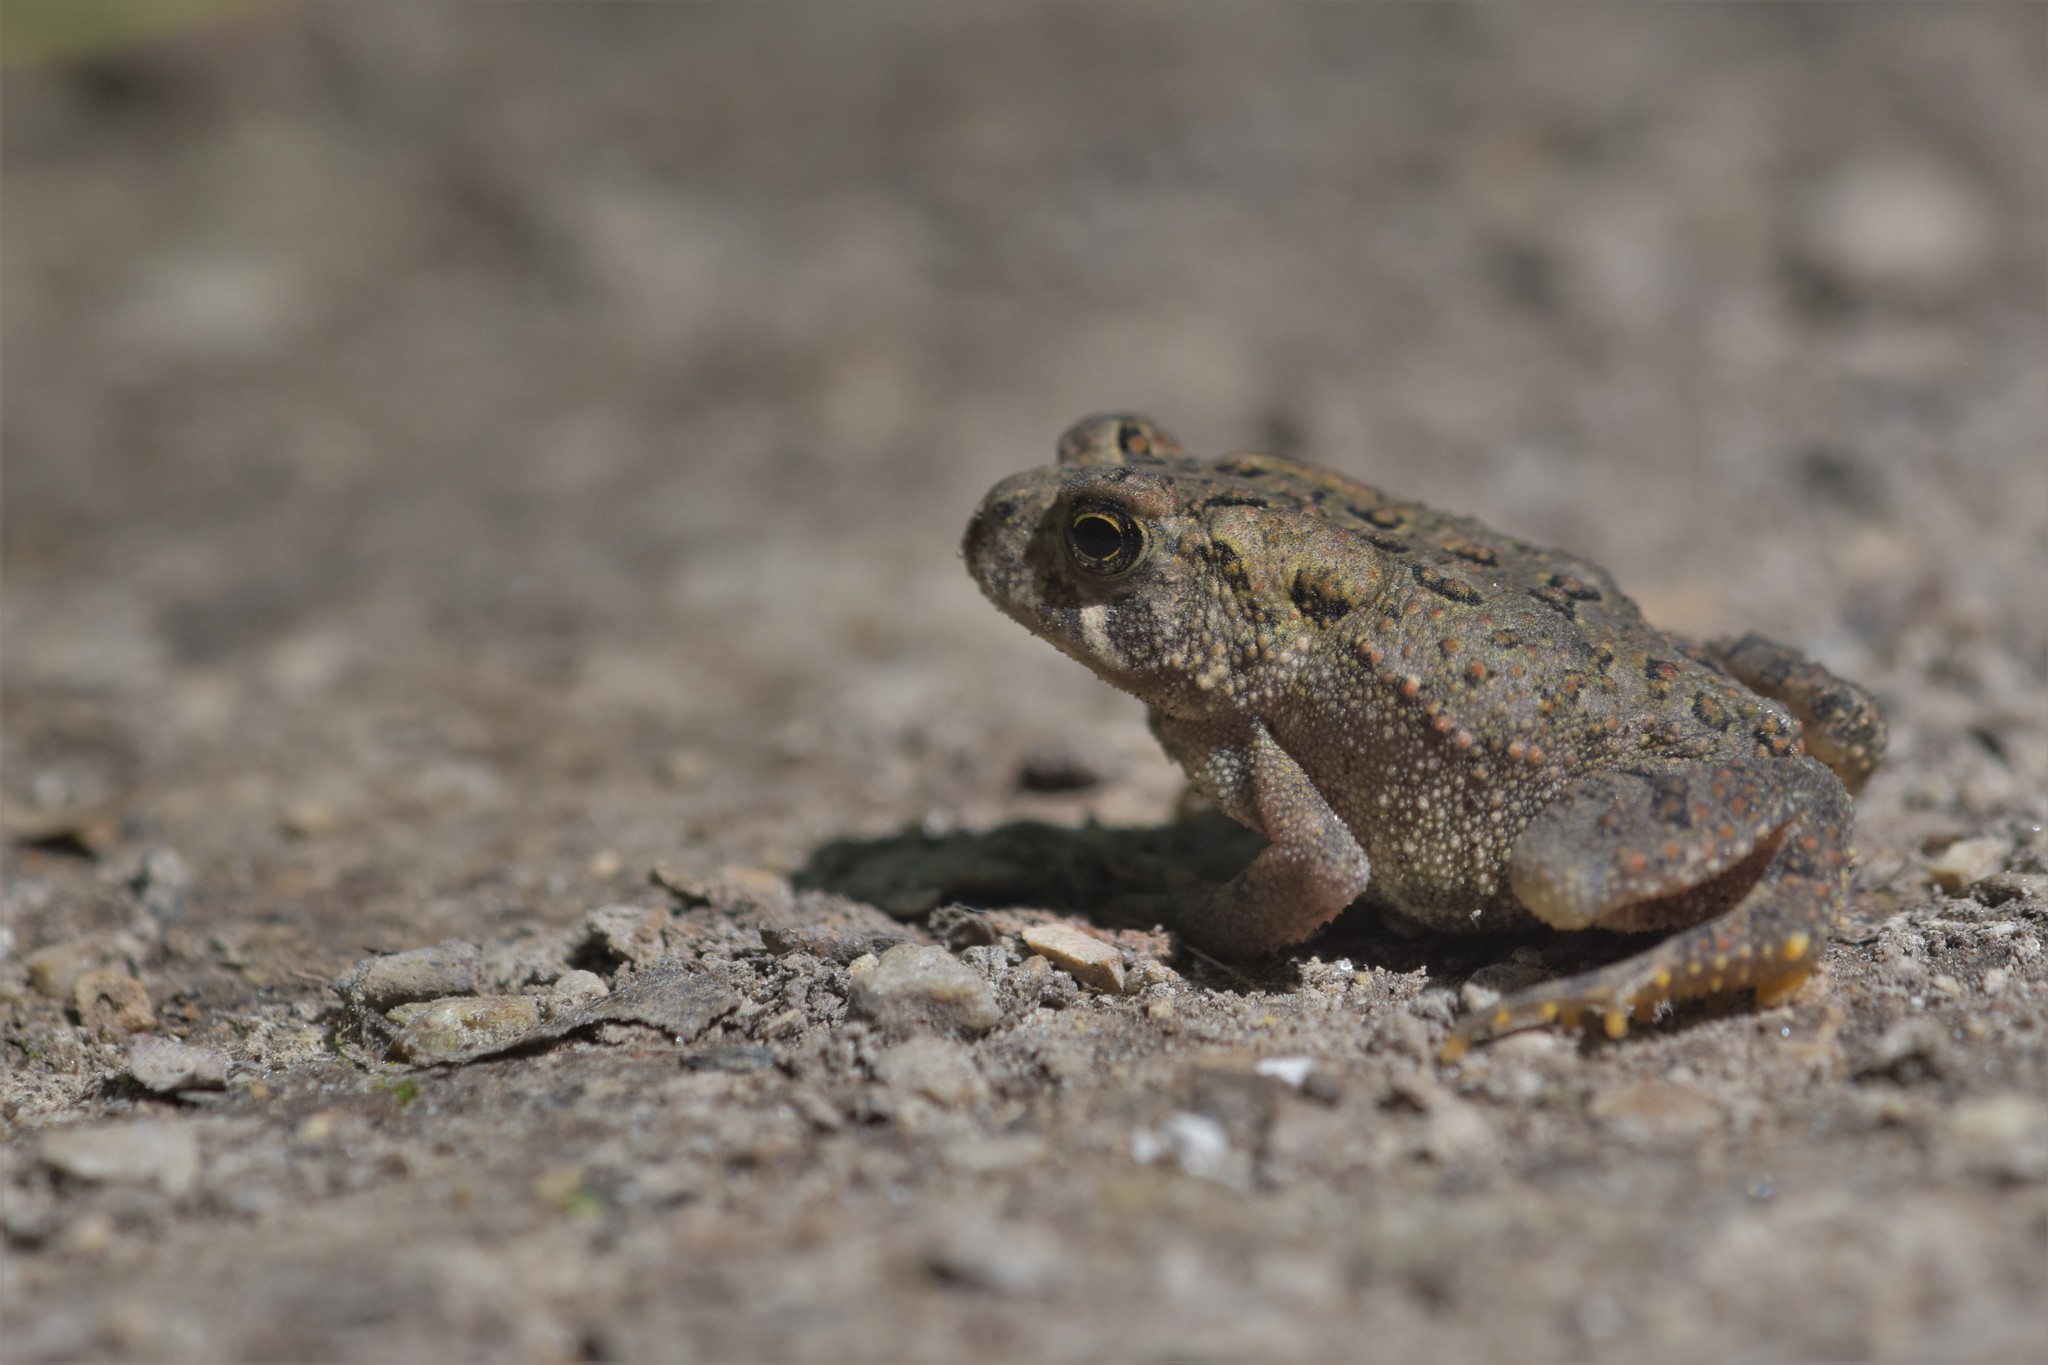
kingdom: Animalia
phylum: Chordata
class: Amphibia
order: Anura
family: Bufonidae
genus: Anaxyrus
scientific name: Anaxyrus americanus
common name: American toad
